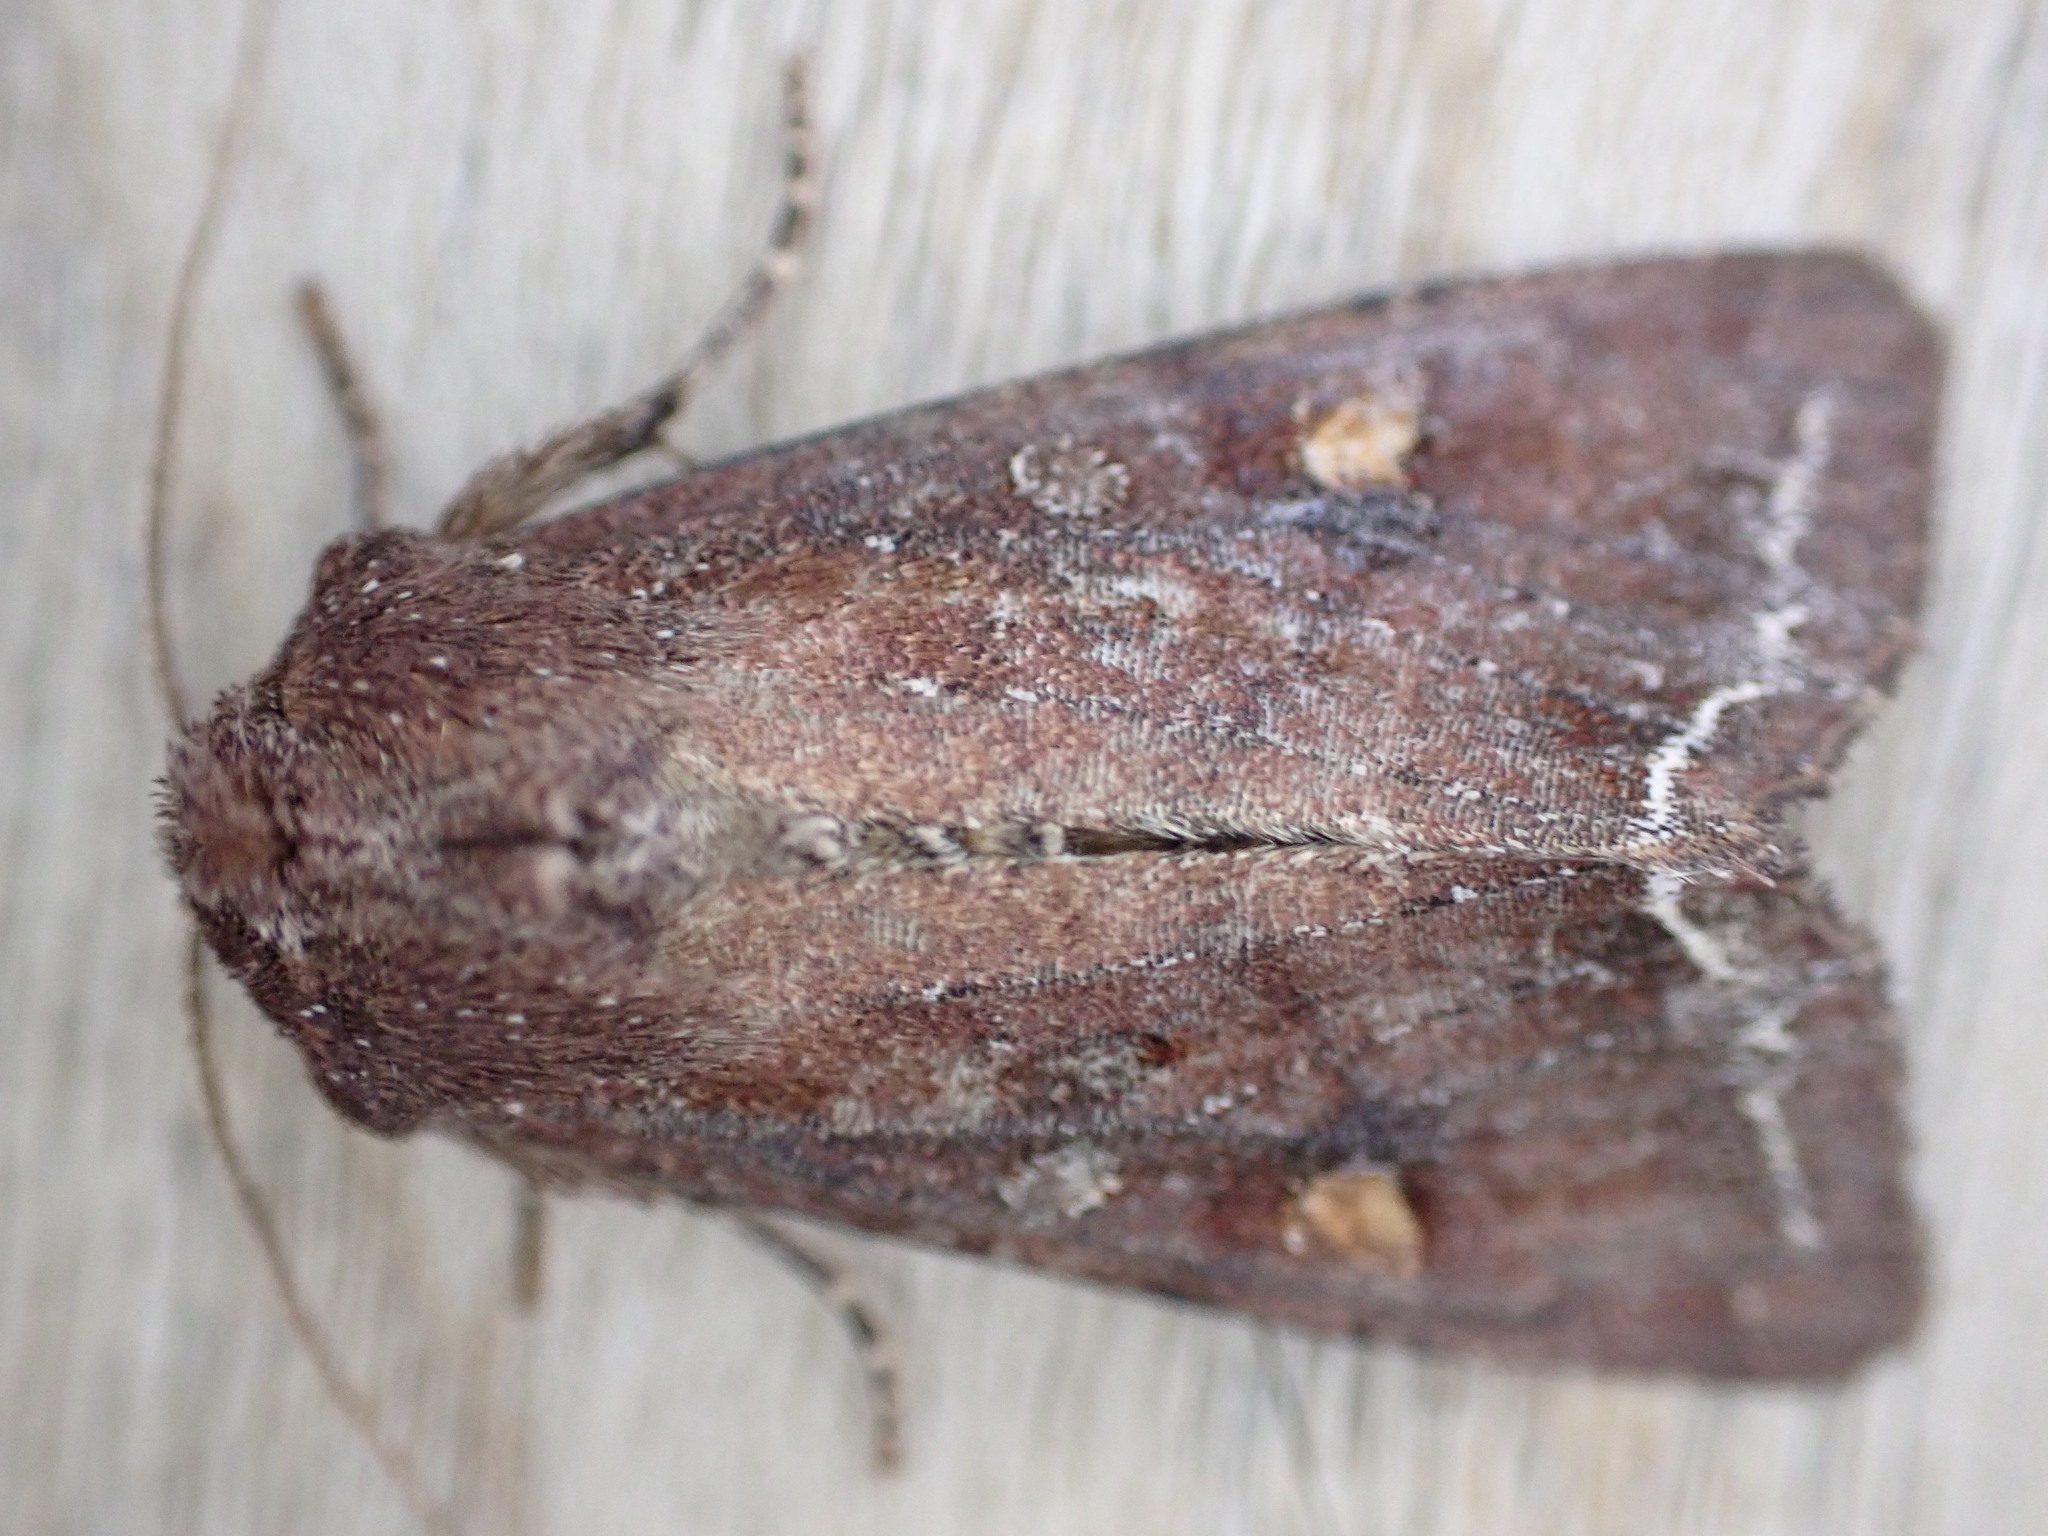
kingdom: Animalia
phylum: Arthropoda
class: Insecta
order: Lepidoptera
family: Noctuidae
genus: Lacanobia
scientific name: Lacanobia oleracea
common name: Bright-line brown-eye
